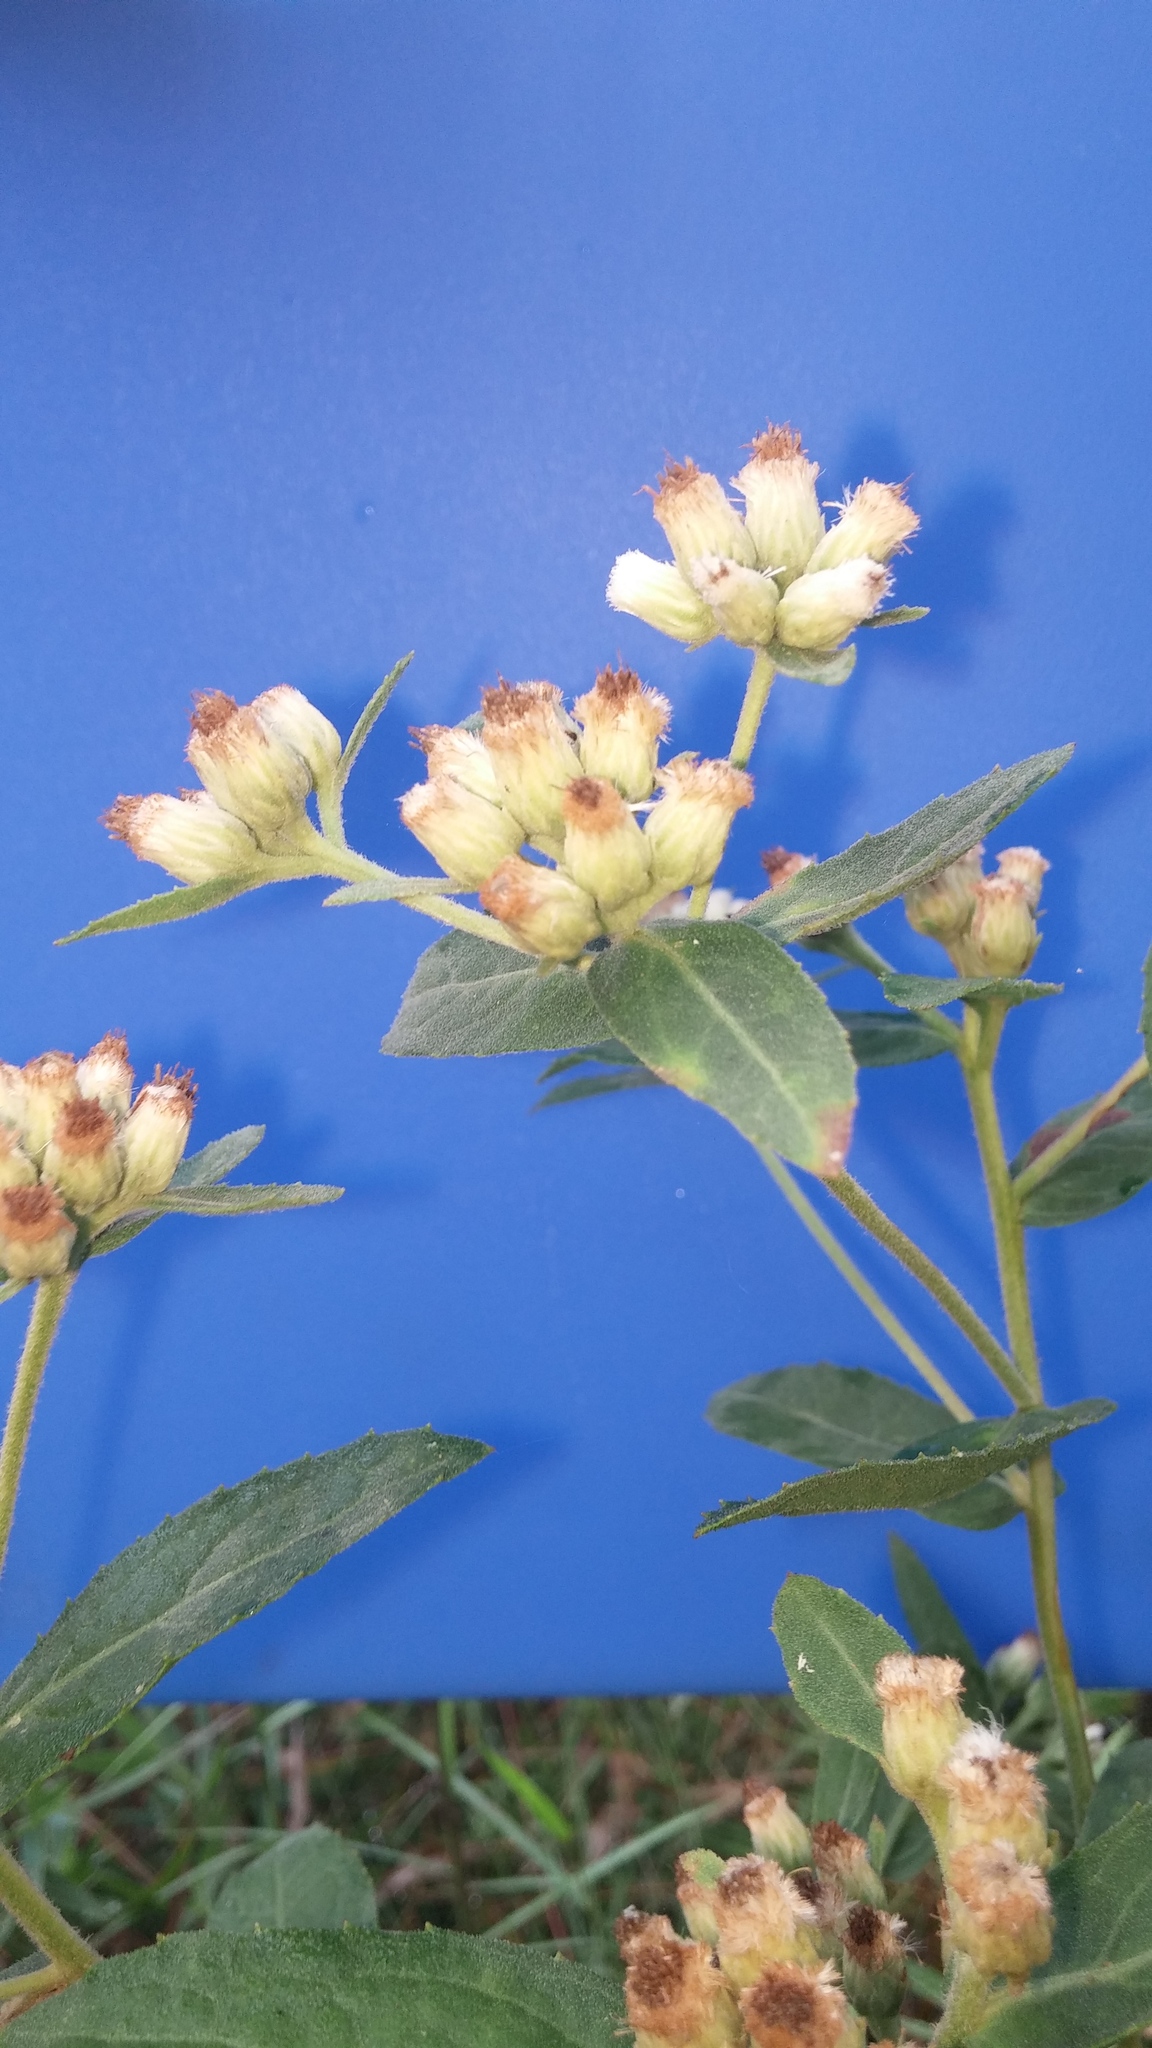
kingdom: Plantae
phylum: Tracheophyta
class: Magnoliopsida
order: Asterales
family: Asteraceae
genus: Pluchea
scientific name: Pluchea foetida
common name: Stinking camphorweed
